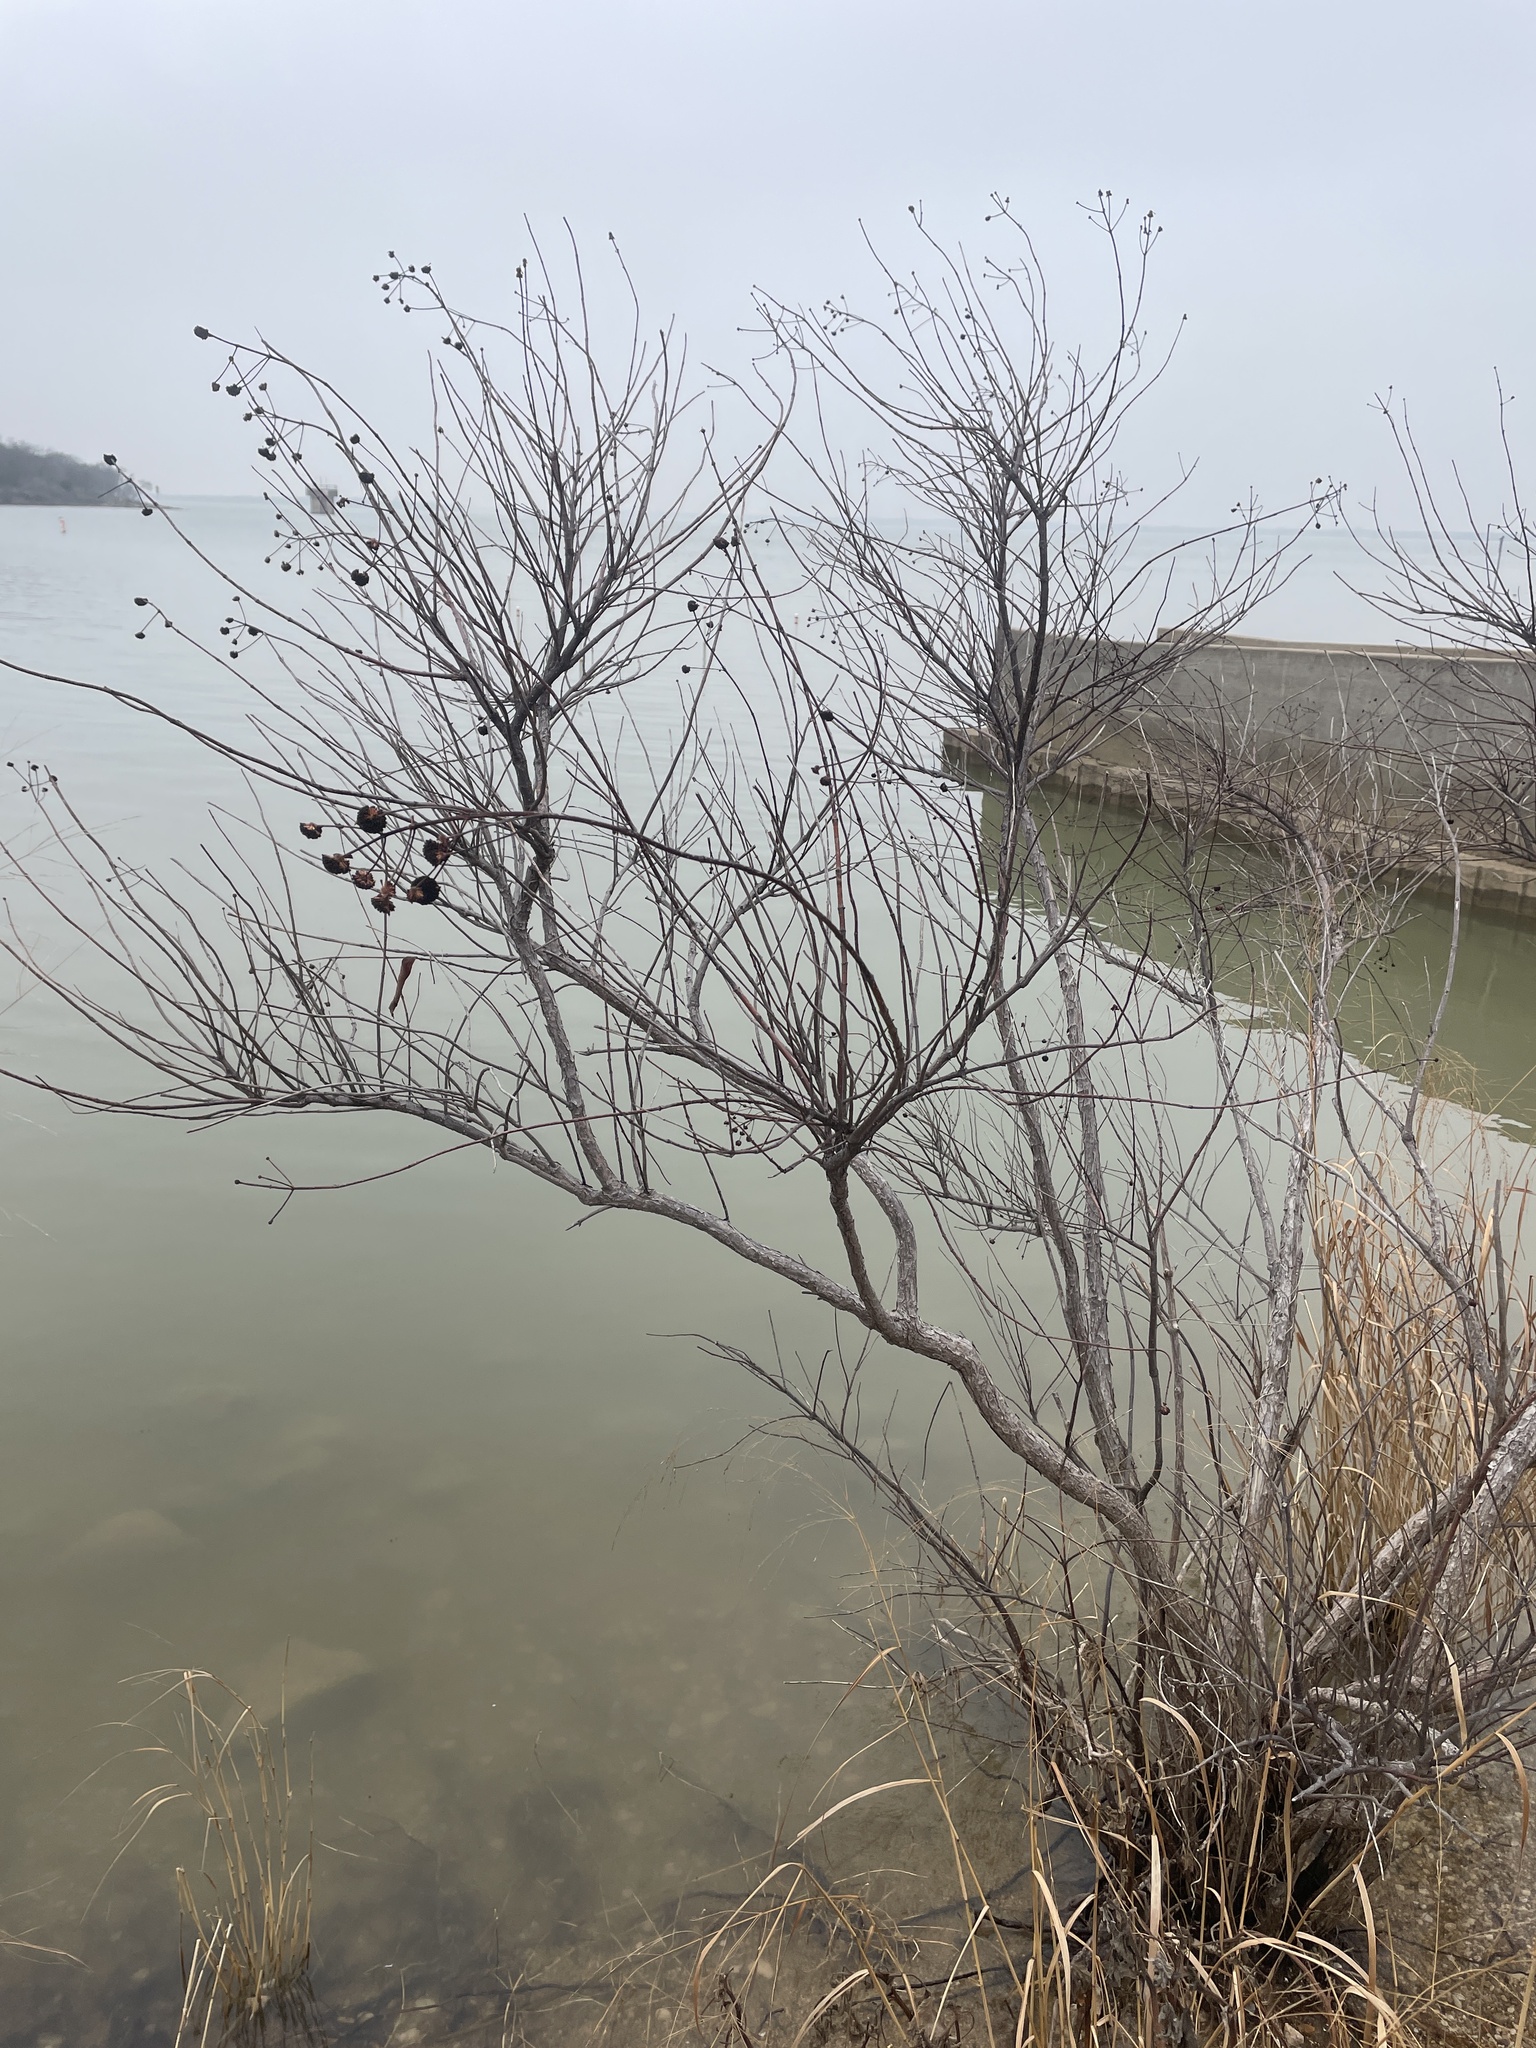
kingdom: Plantae
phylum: Tracheophyta
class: Magnoliopsida
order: Gentianales
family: Rubiaceae
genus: Cephalanthus
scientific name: Cephalanthus occidentalis
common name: Button-willow
